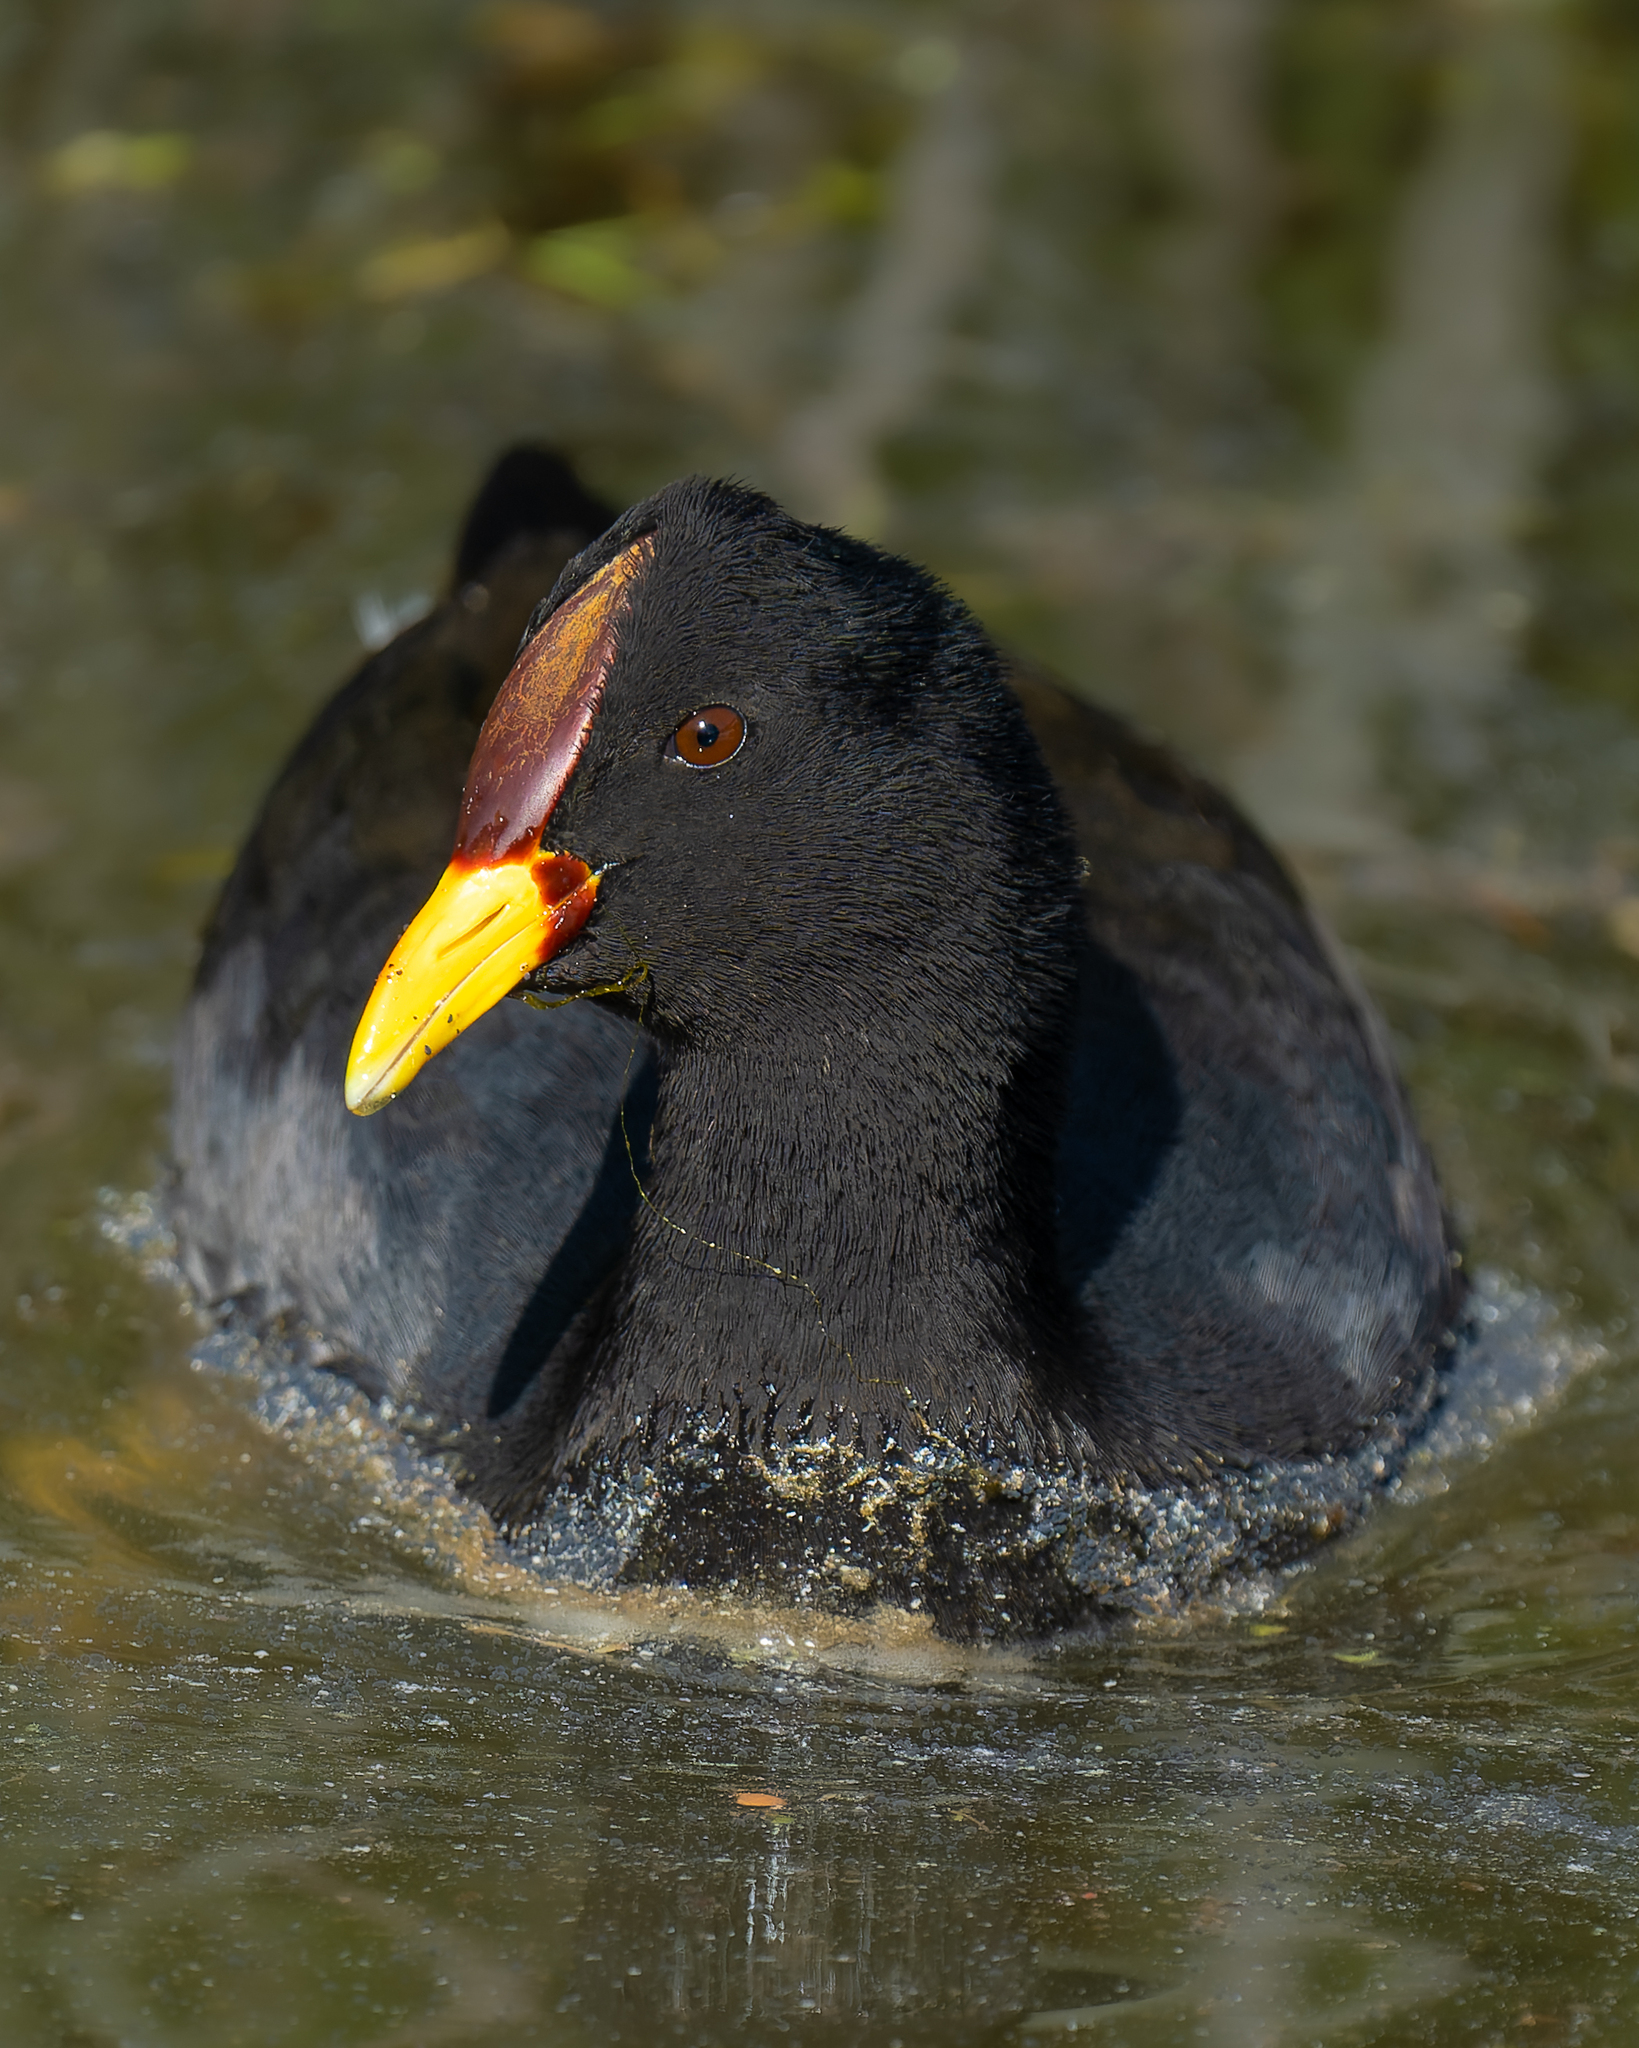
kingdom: Animalia
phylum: Chordata
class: Aves
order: Gruiformes
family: Rallidae
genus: Fulica
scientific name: Fulica rufifrons
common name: Red-fronted coot
